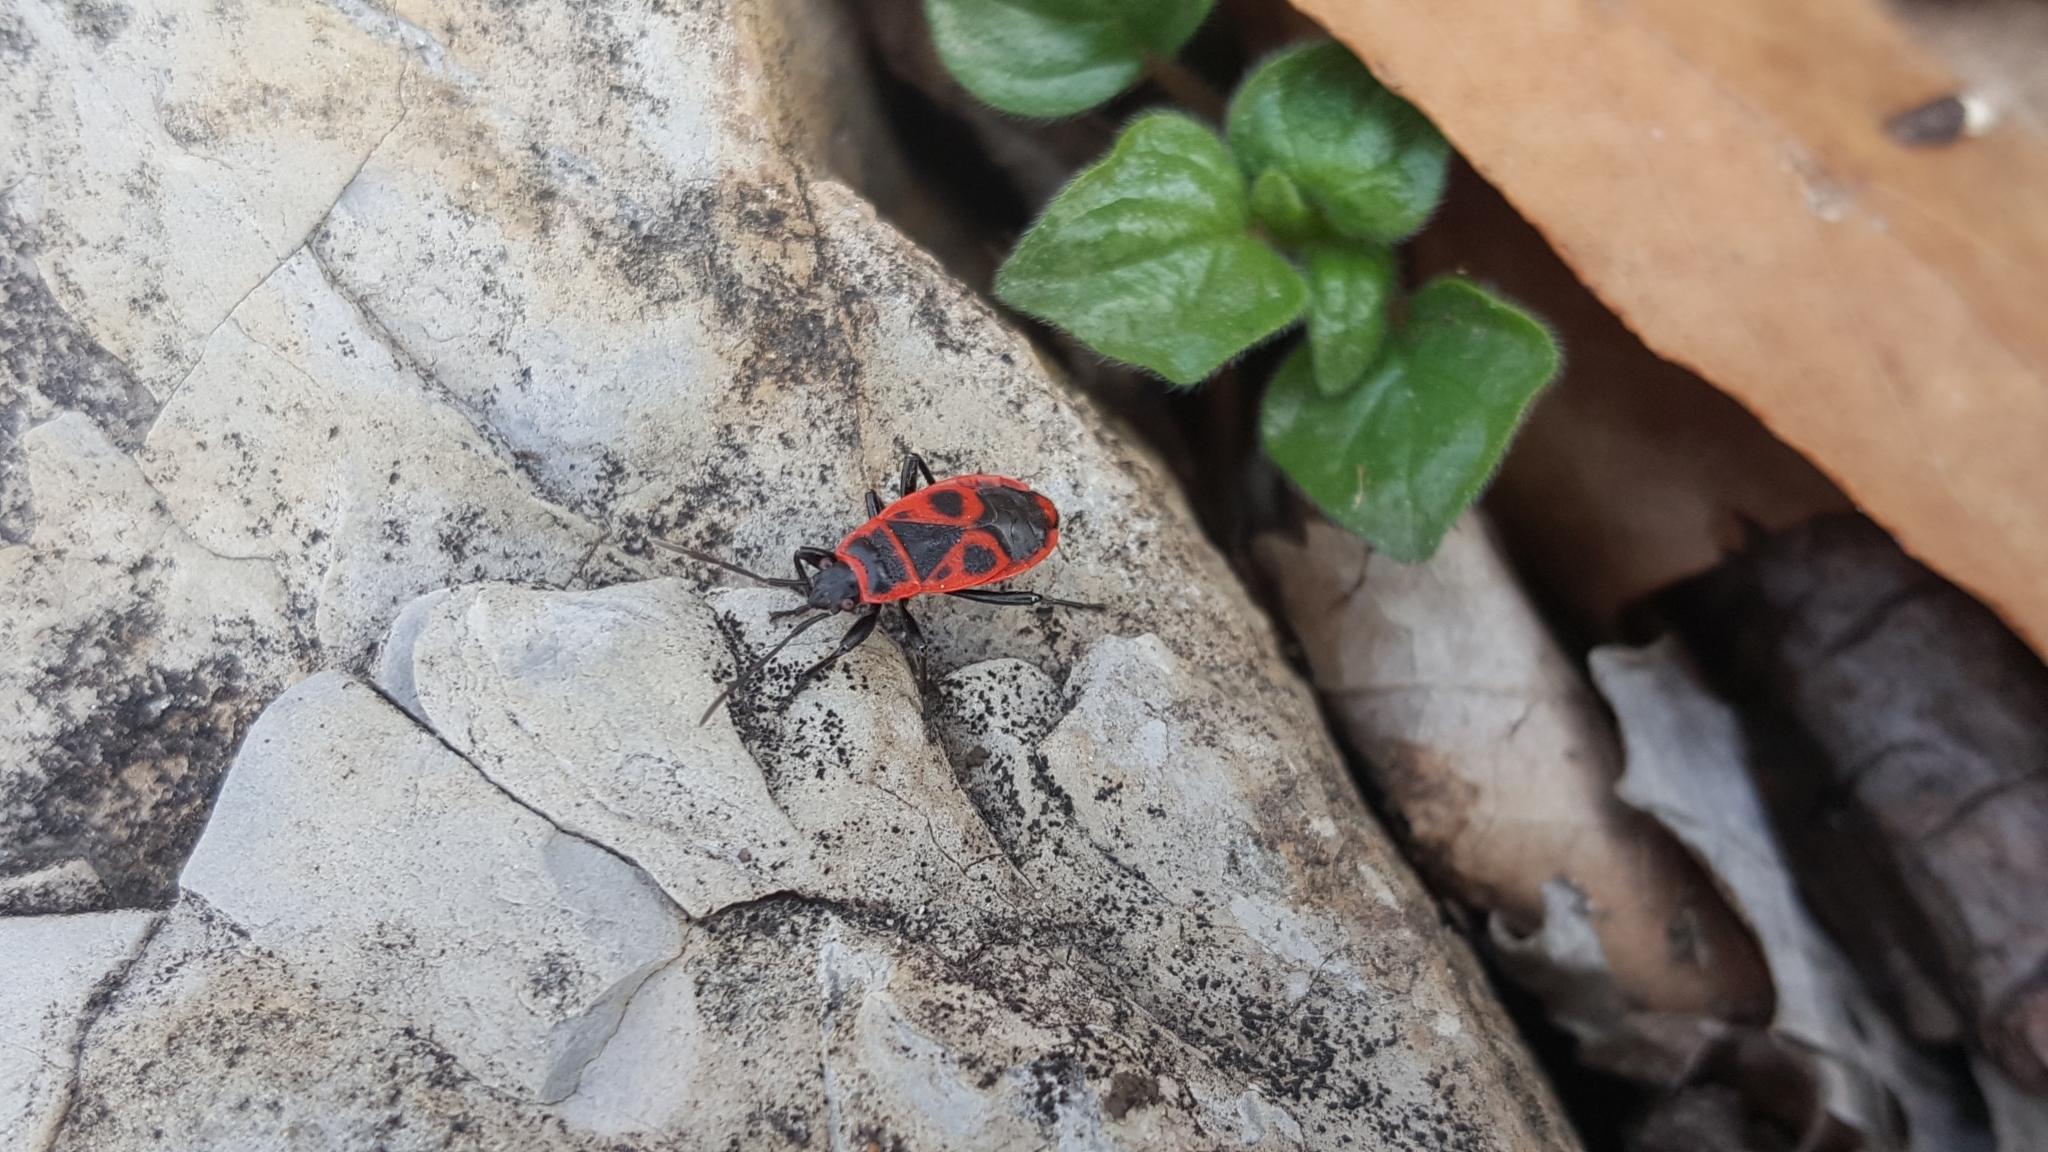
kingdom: Animalia
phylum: Arthropoda
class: Insecta
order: Hemiptera
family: Pyrrhocoridae
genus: Pyrrhocoris
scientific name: Pyrrhocoris apterus
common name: Firebug
